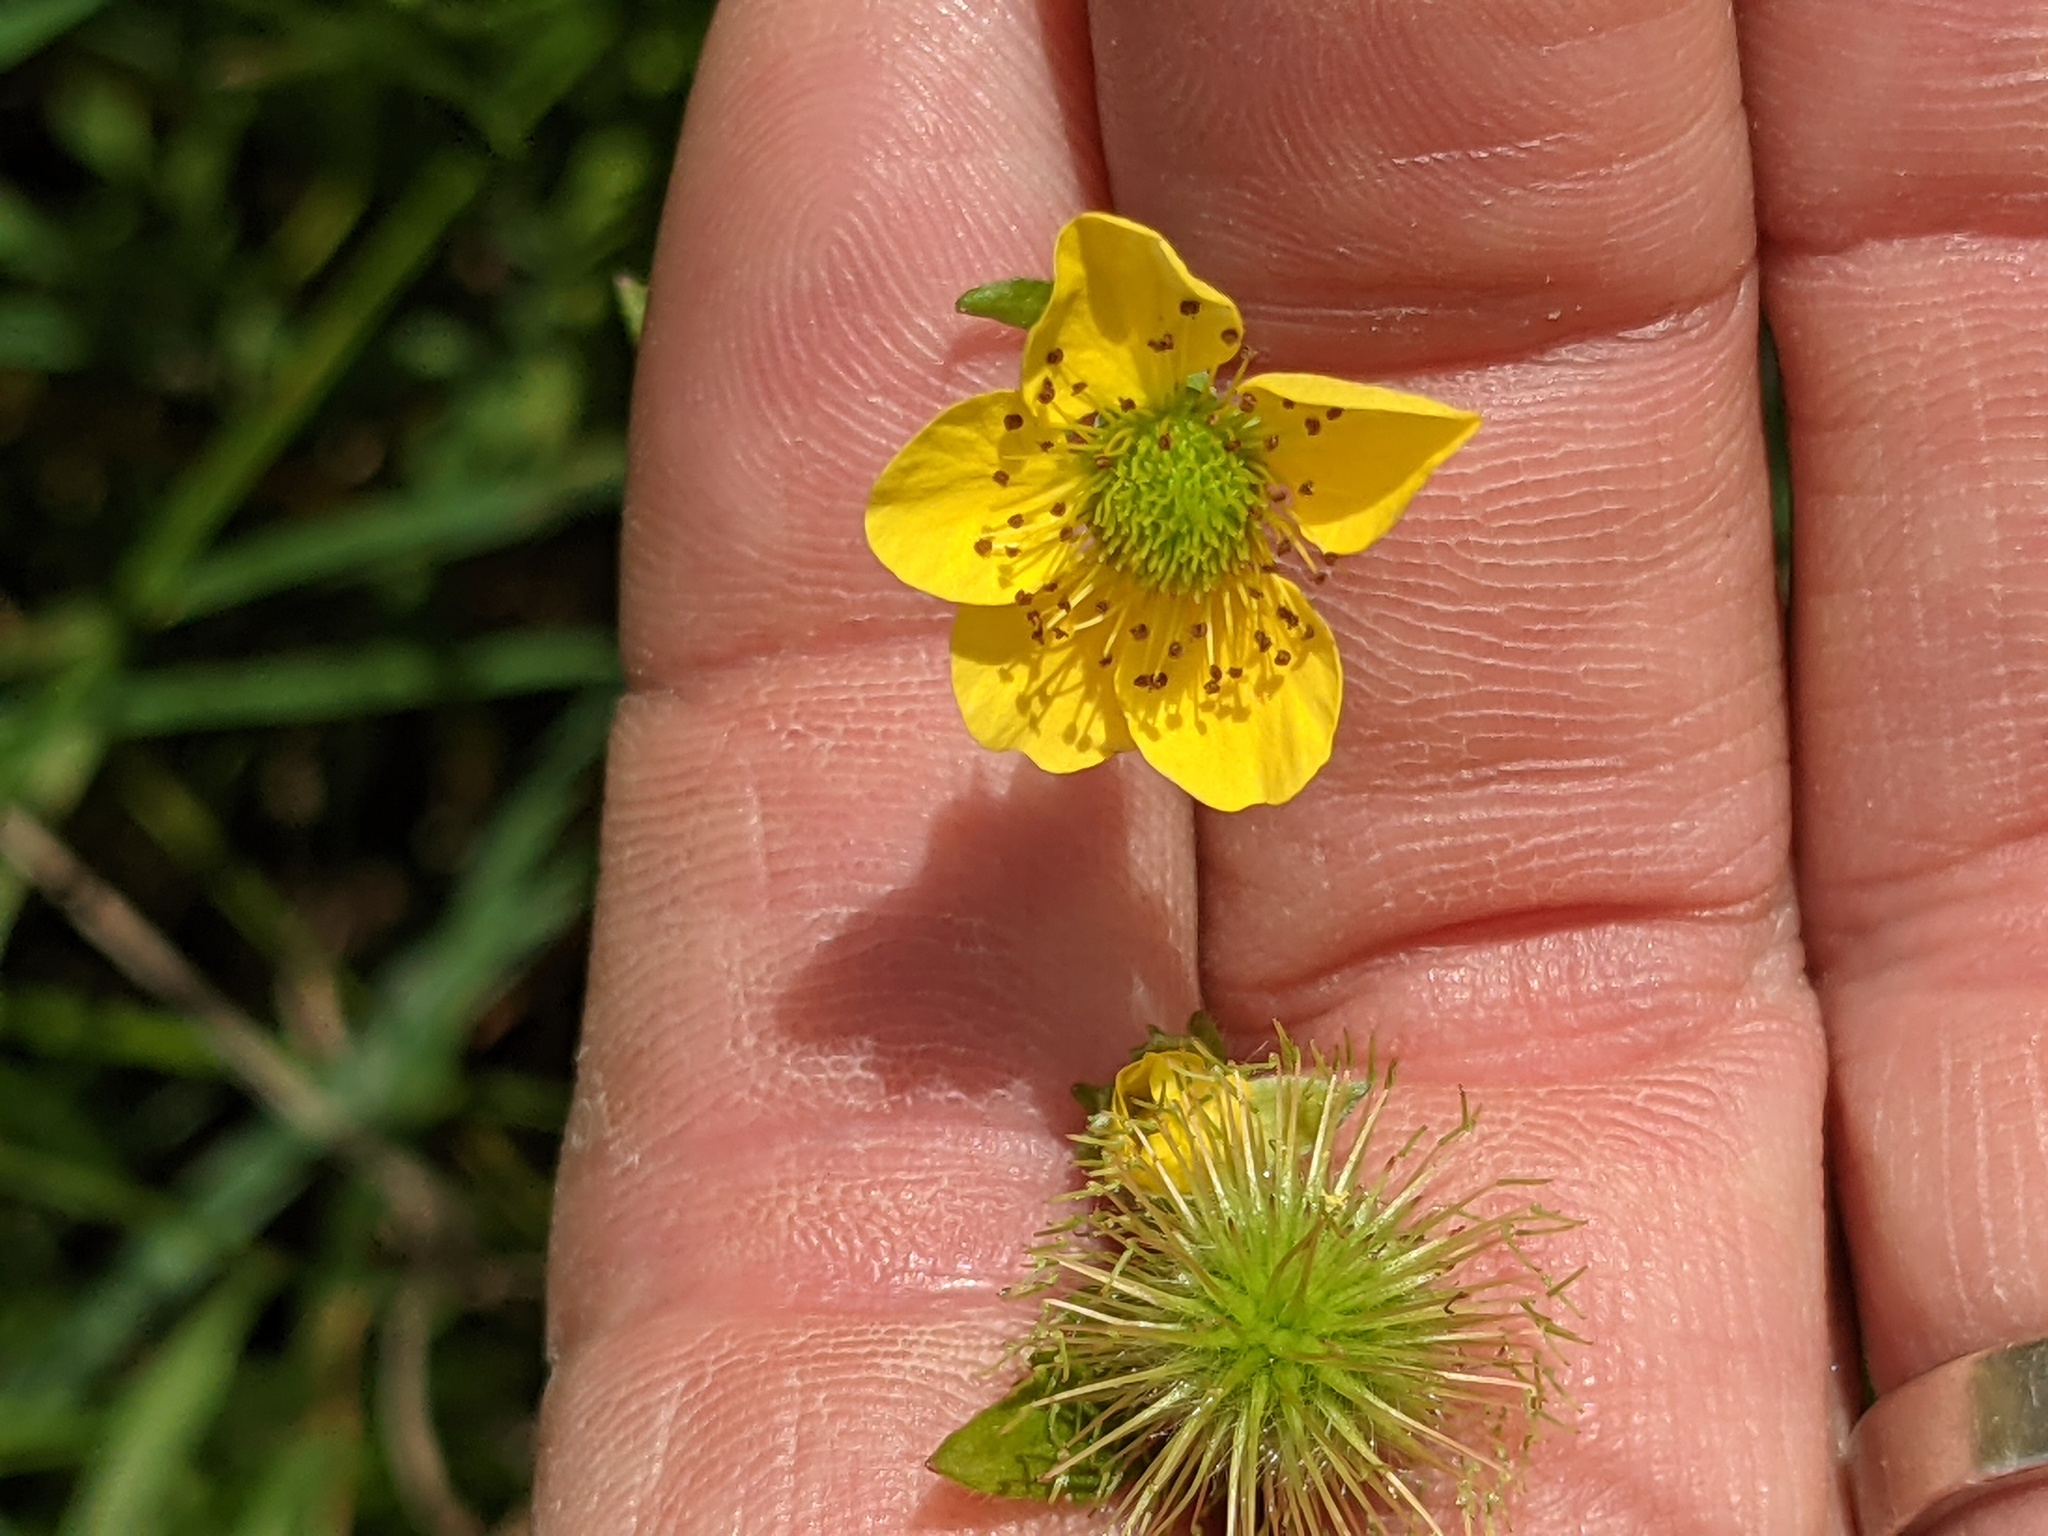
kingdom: Plantae
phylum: Tracheophyta
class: Magnoliopsida
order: Rosales
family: Rosaceae
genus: Geum
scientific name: Geum aleppicum
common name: Yellow avens
